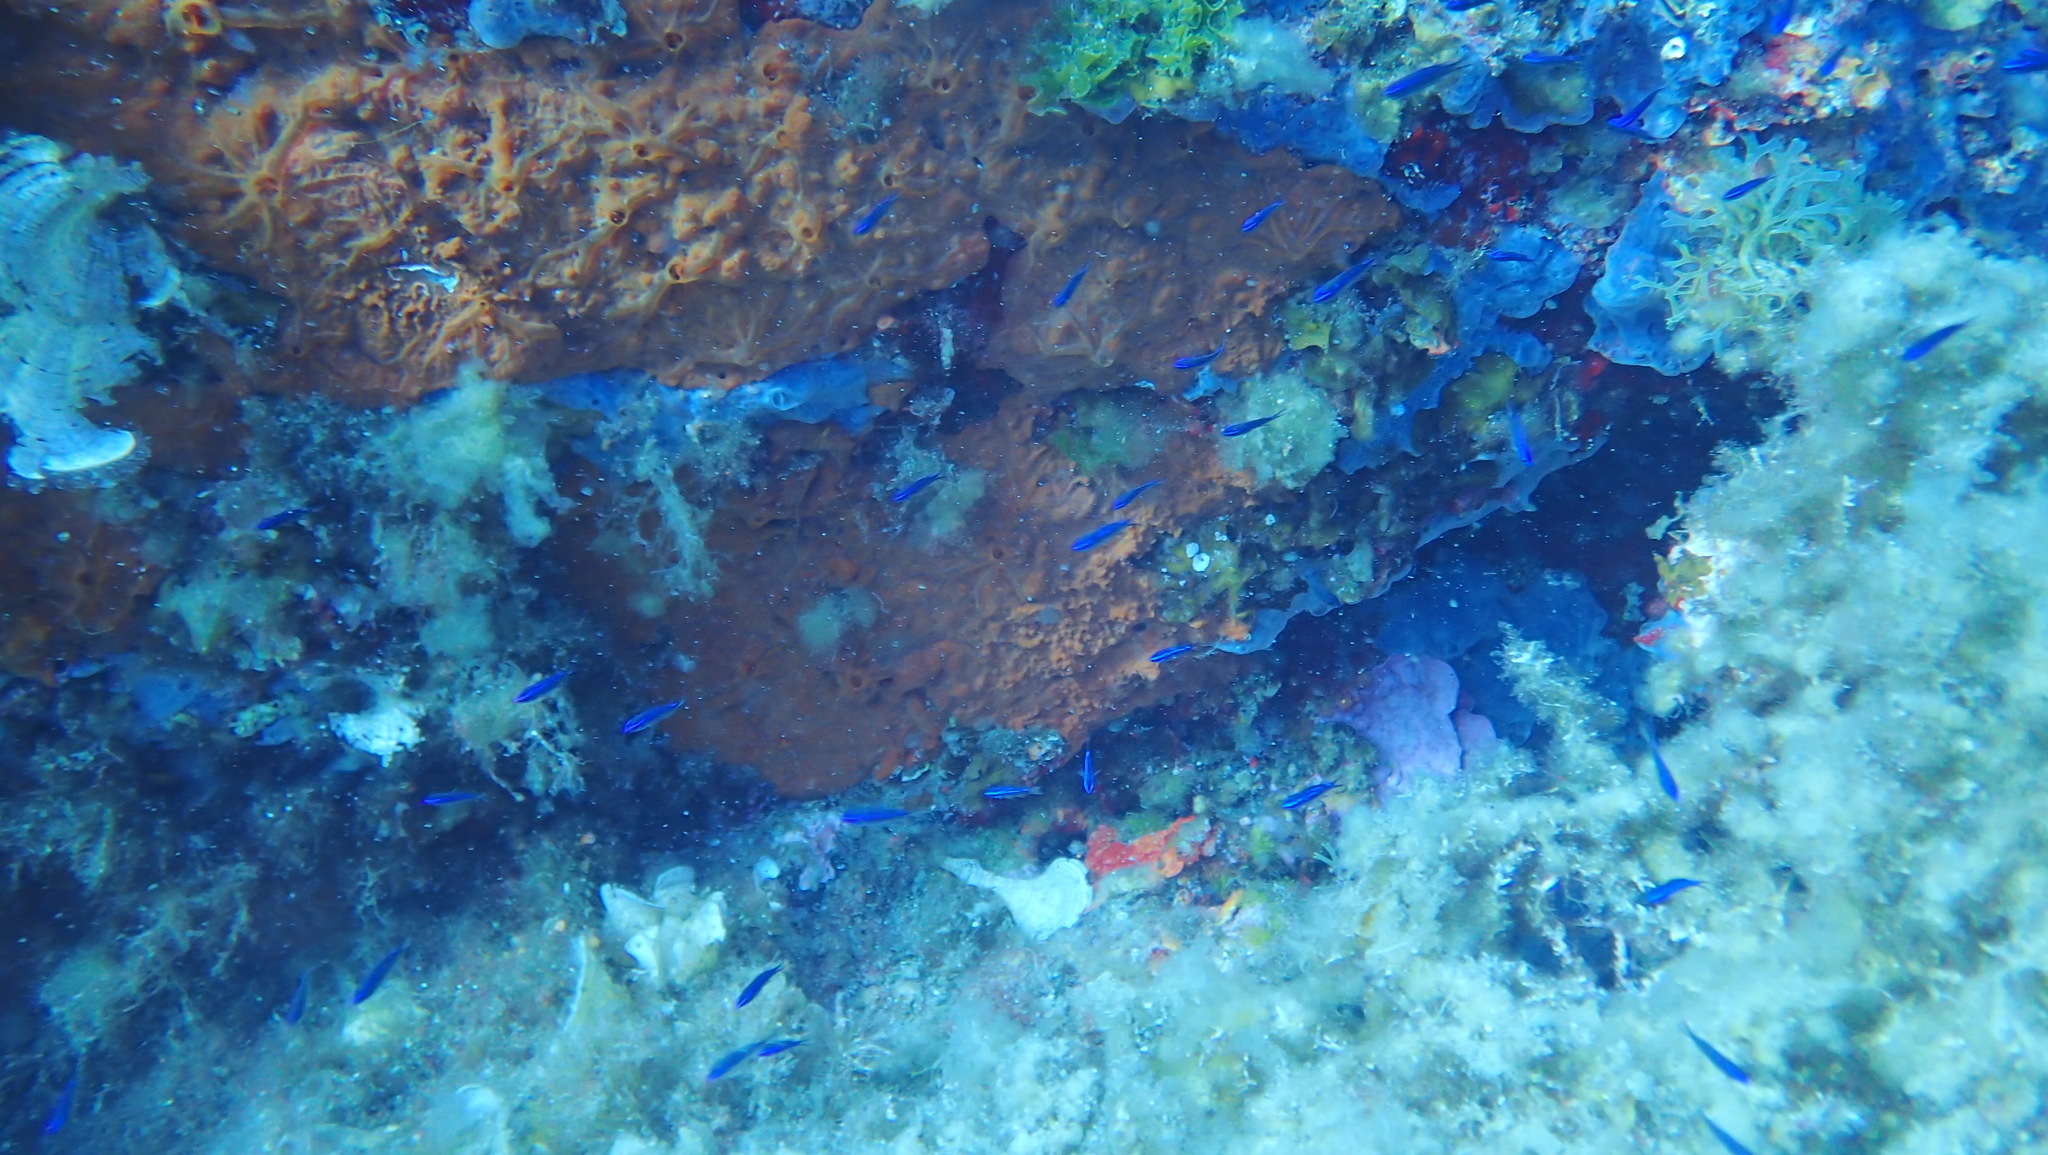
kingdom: Animalia
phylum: Chordata
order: Perciformes
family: Pomacentridae
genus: Chromis
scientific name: Chromis chromis
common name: Damselfish
